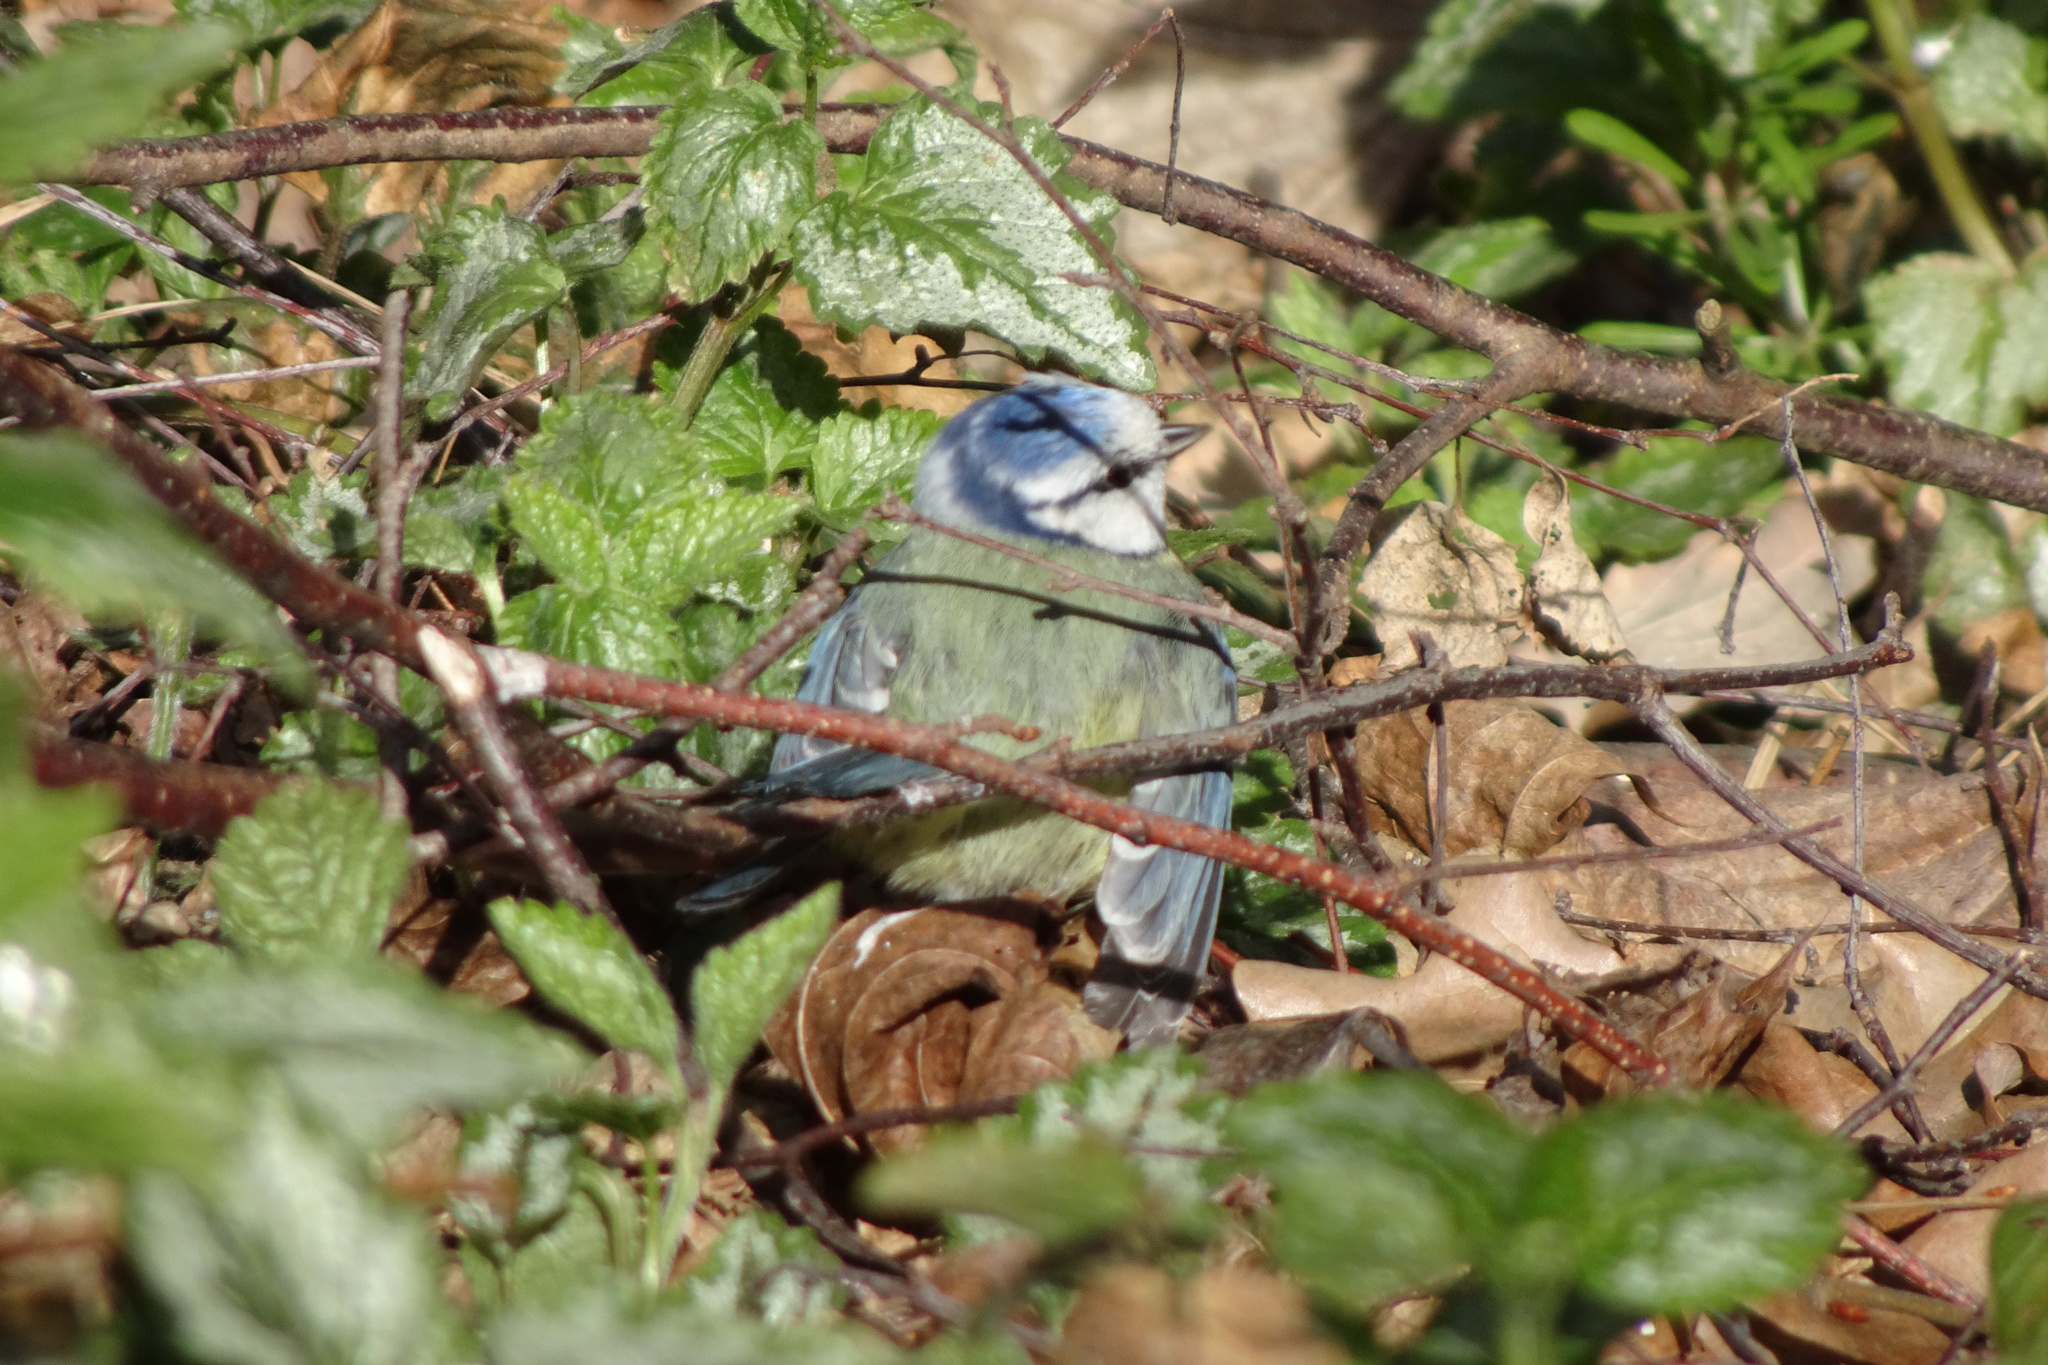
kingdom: Animalia
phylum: Chordata
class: Aves
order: Passeriformes
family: Paridae
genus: Cyanistes
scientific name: Cyanistes caeruleus
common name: Eurasian blue tit
